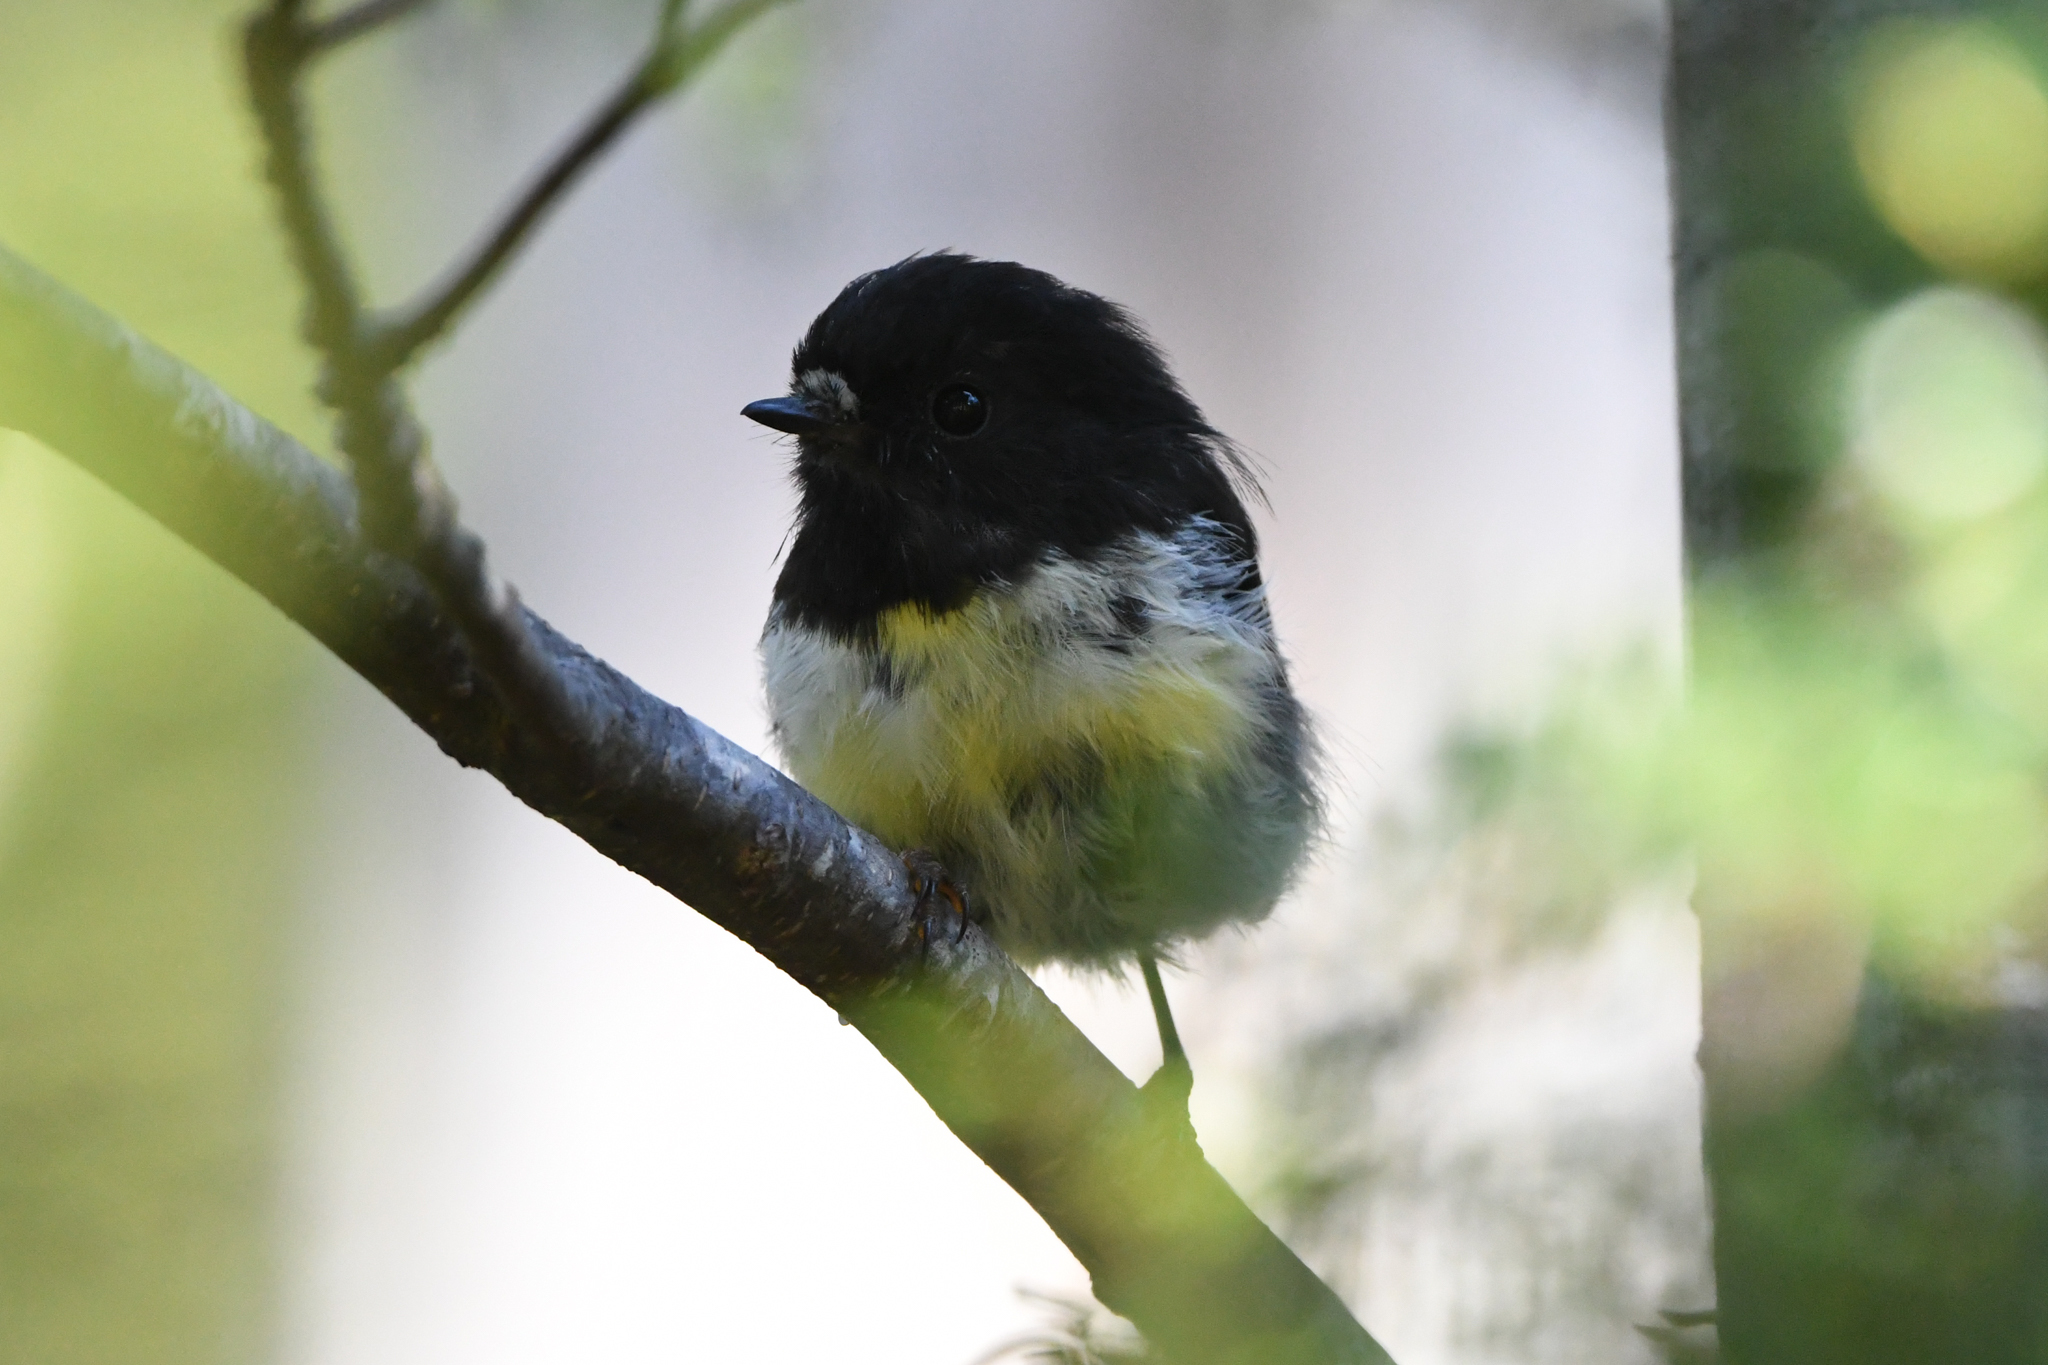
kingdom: Animalia
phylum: Chordata
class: Aves
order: Passeriformes
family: Petroicidae
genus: Petroica
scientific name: Petroica macrocephala
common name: Tomtit
